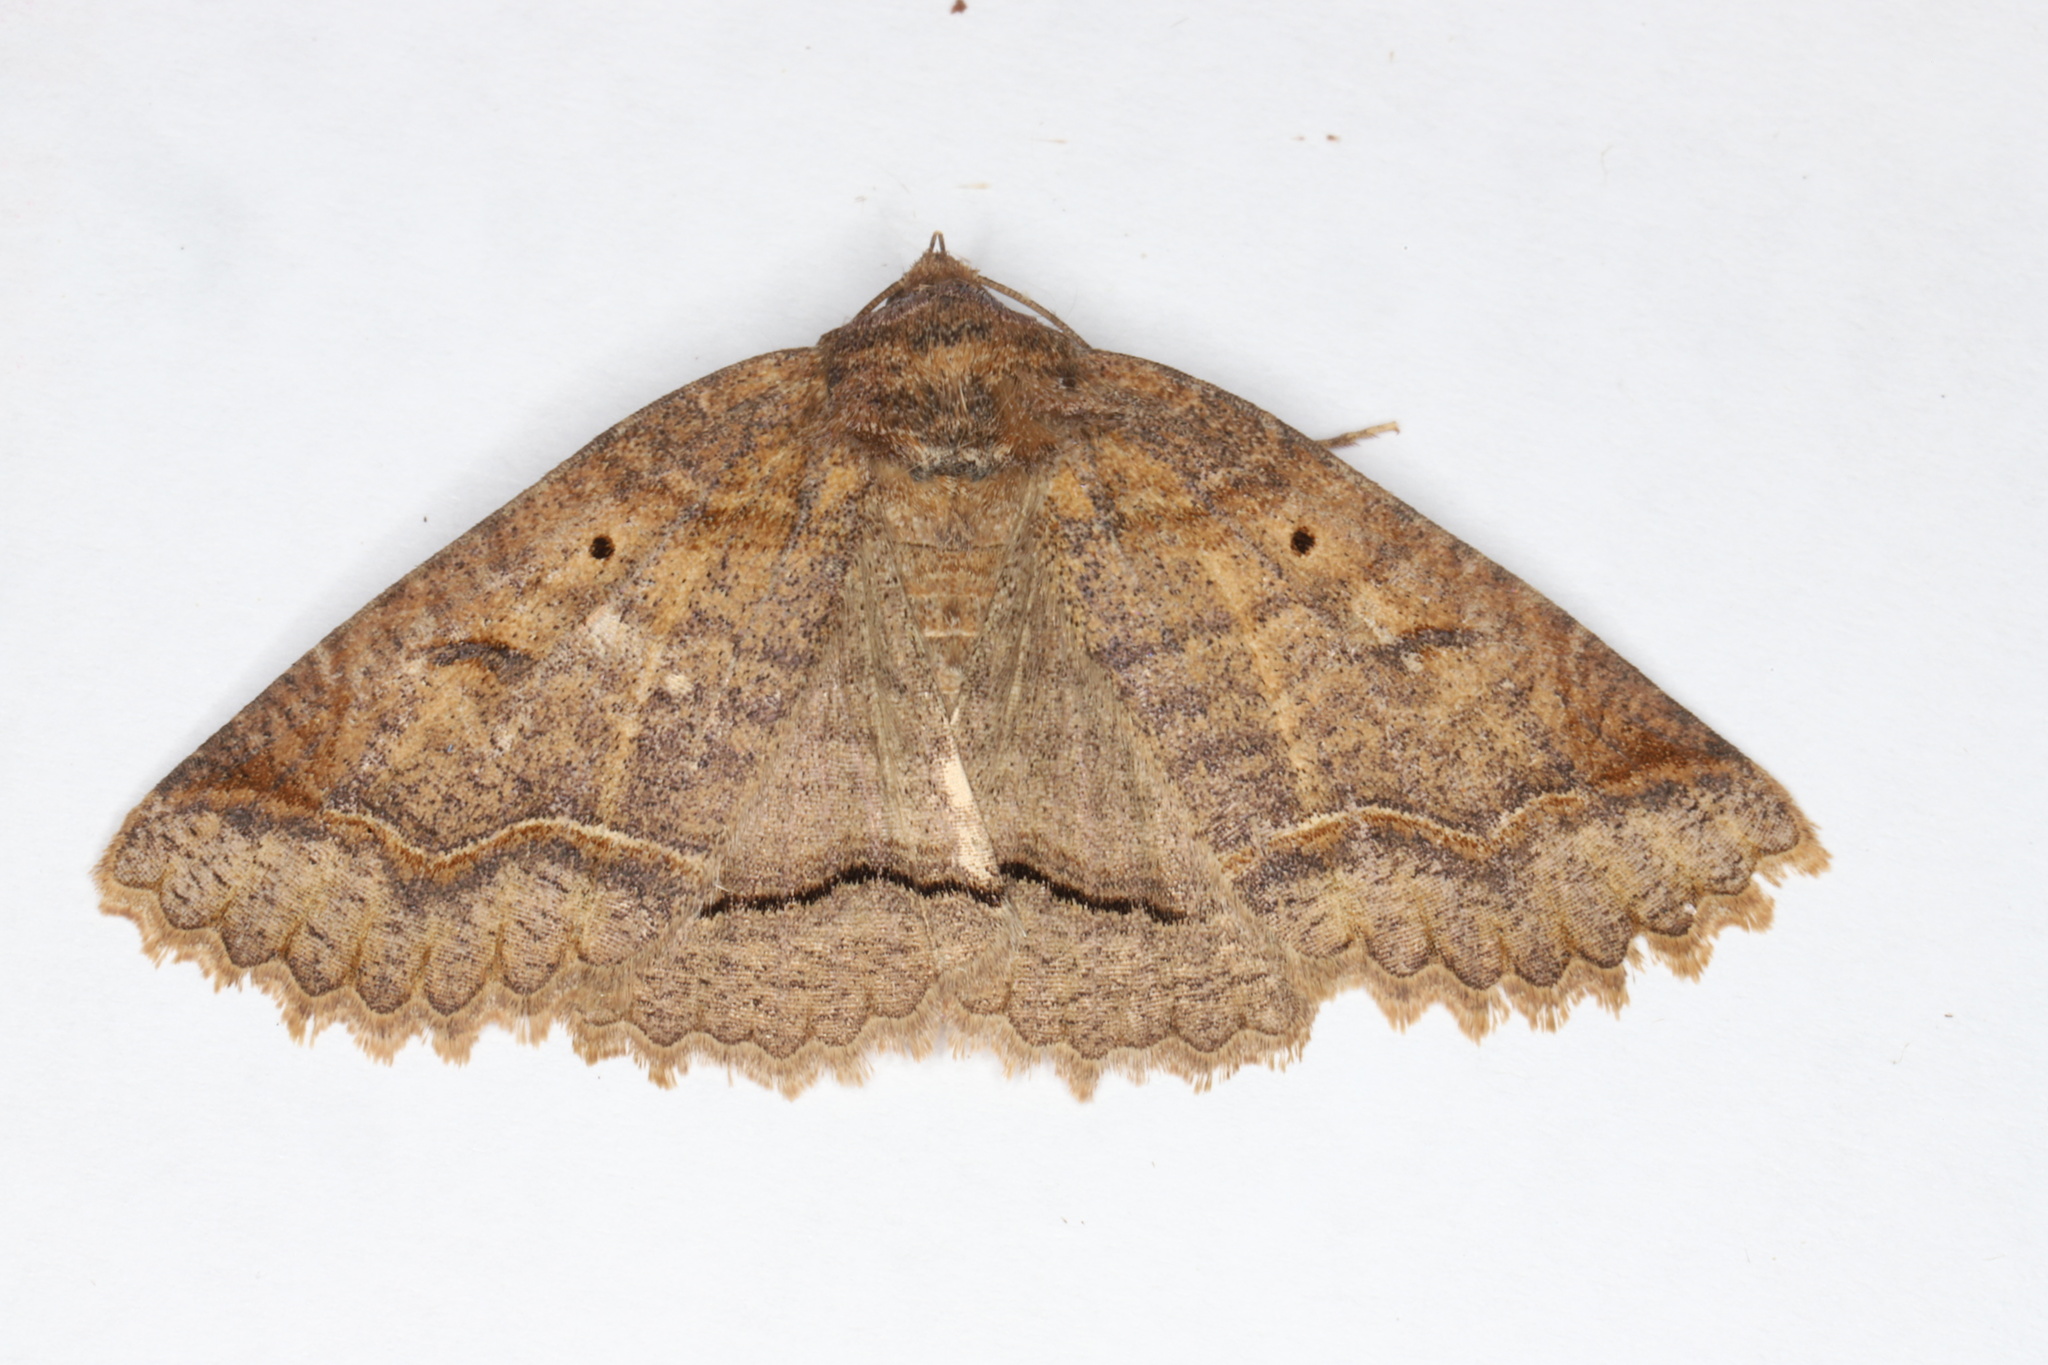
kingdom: Animalia
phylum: Arthropoda
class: Insecta
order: Lepidoptera
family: Erebidae
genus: Zale
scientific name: Zale unilineata
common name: One-lined zale moth
